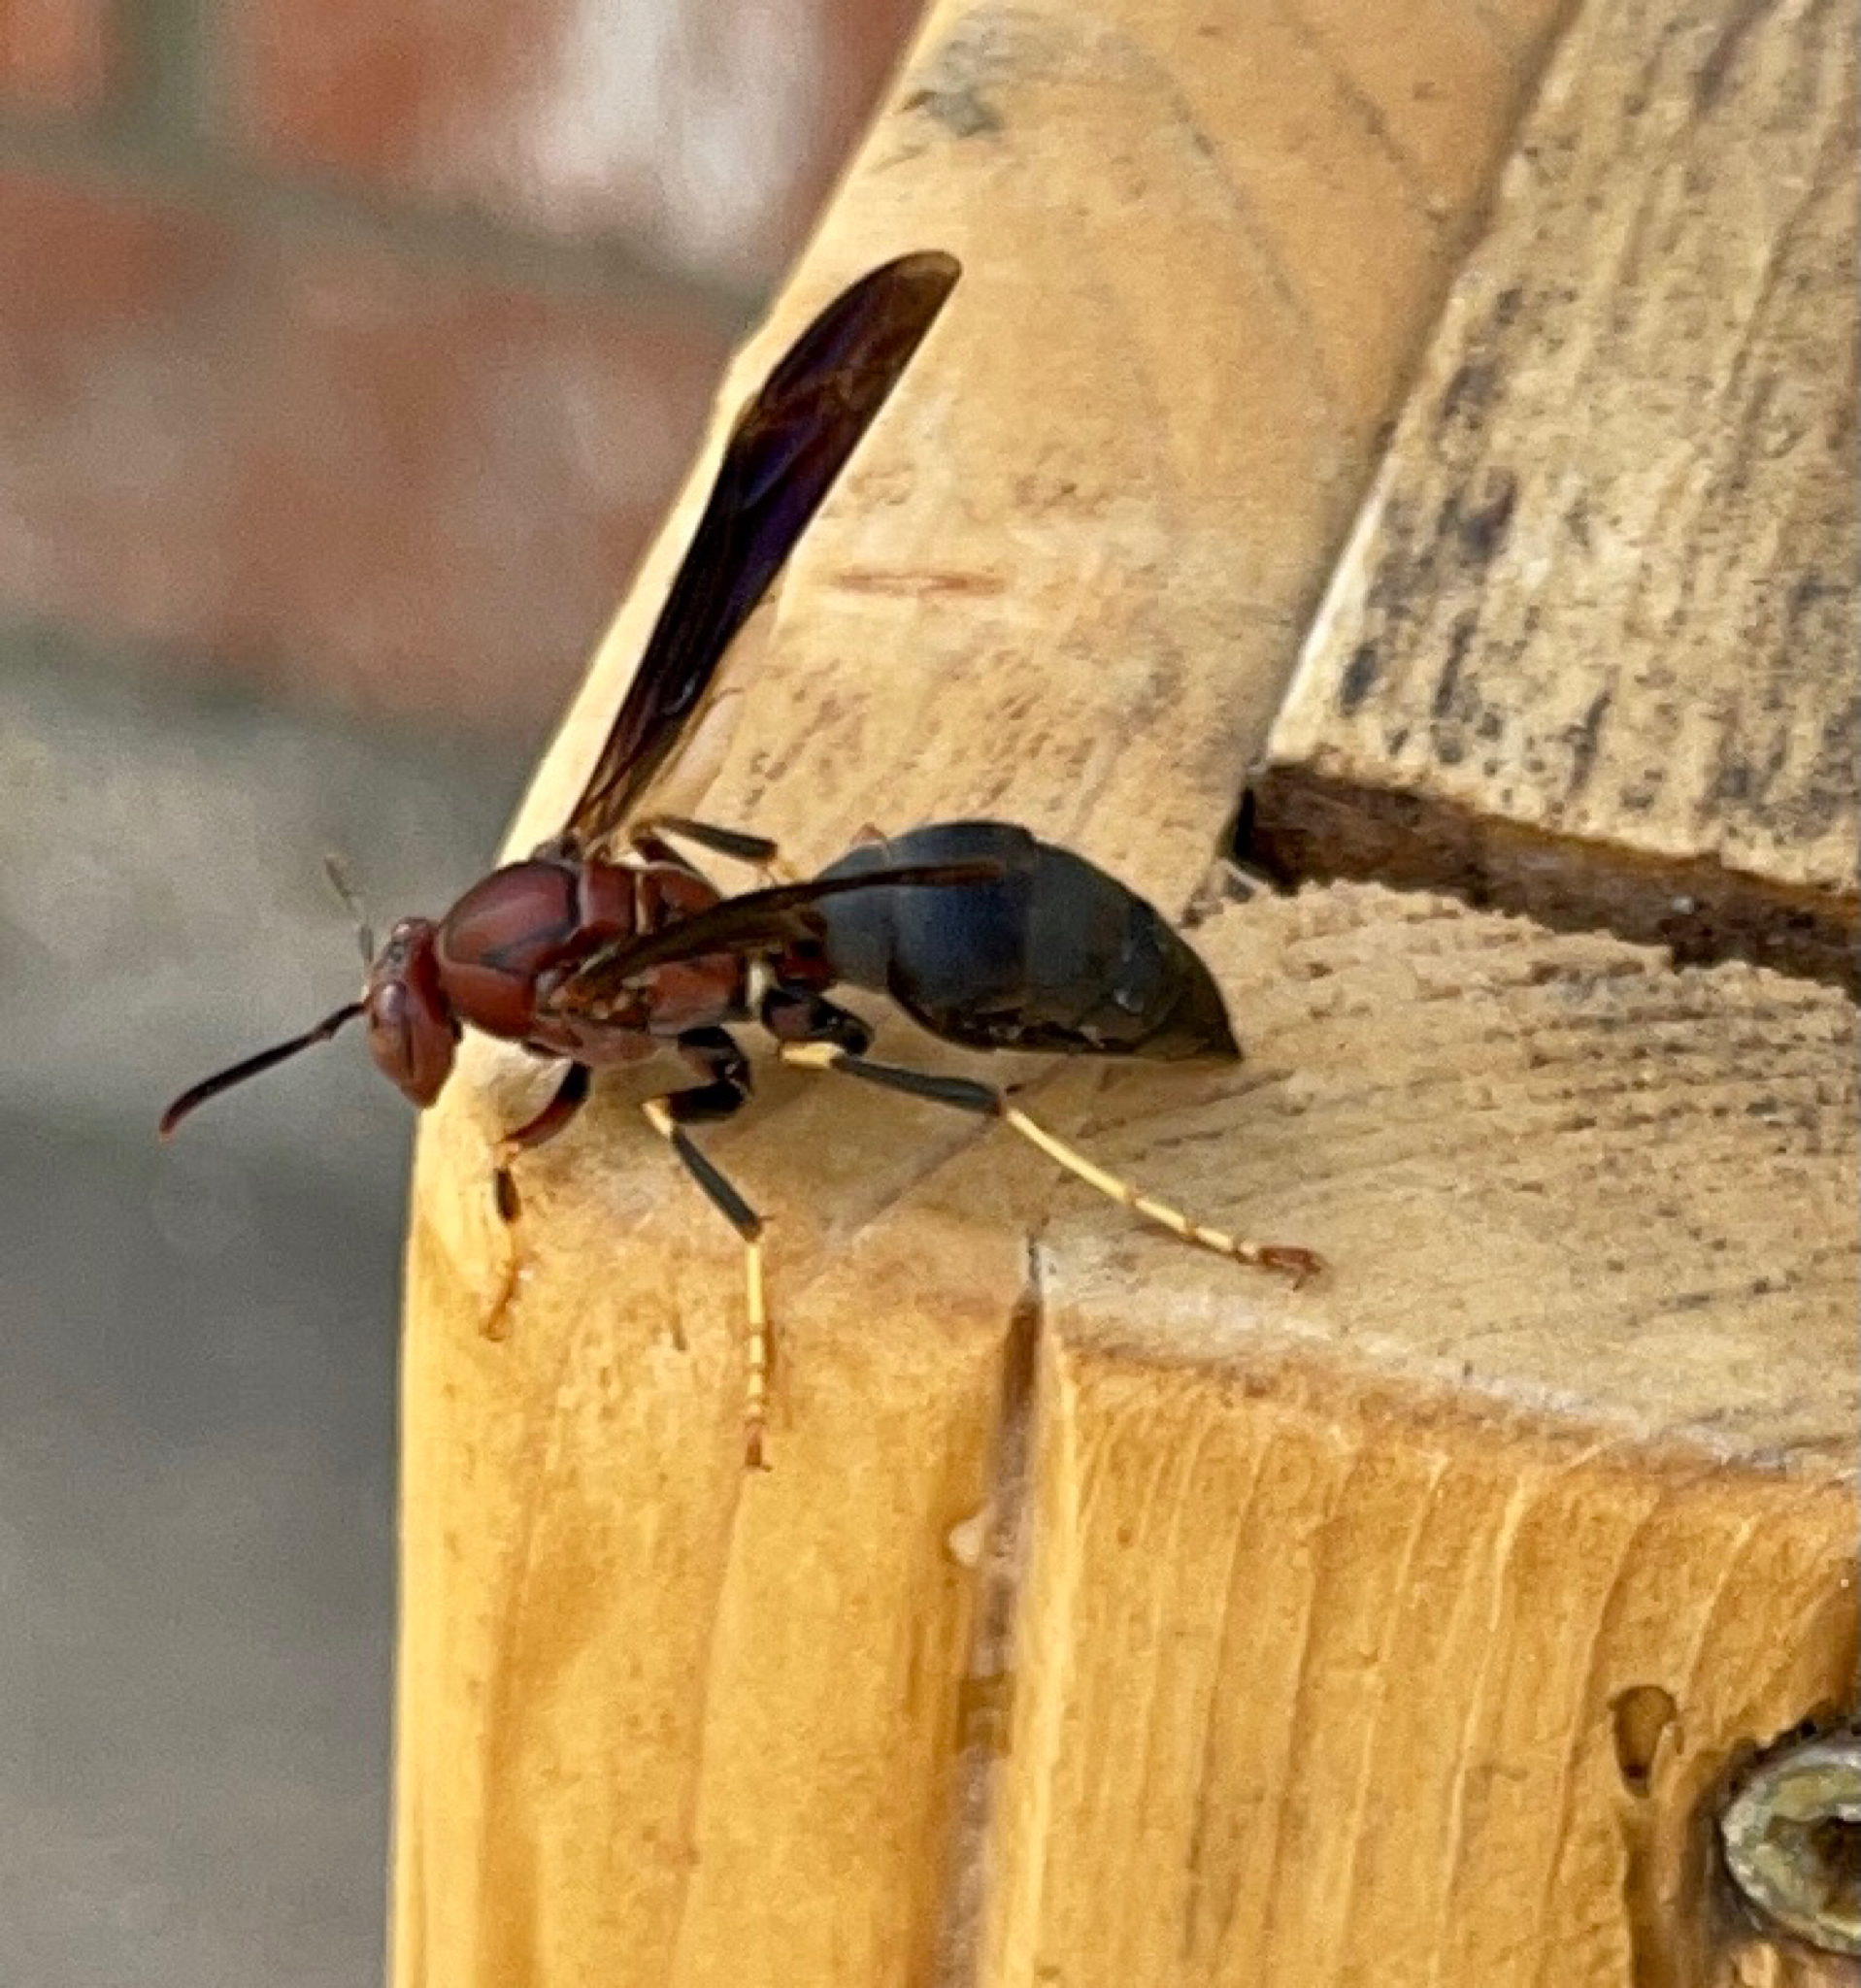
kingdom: Animalia
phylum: Arthropoda
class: Insecta
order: Hymenoptera
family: Eumenidae
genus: Polistes
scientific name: Polistes metricus
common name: Metric paper wasp
